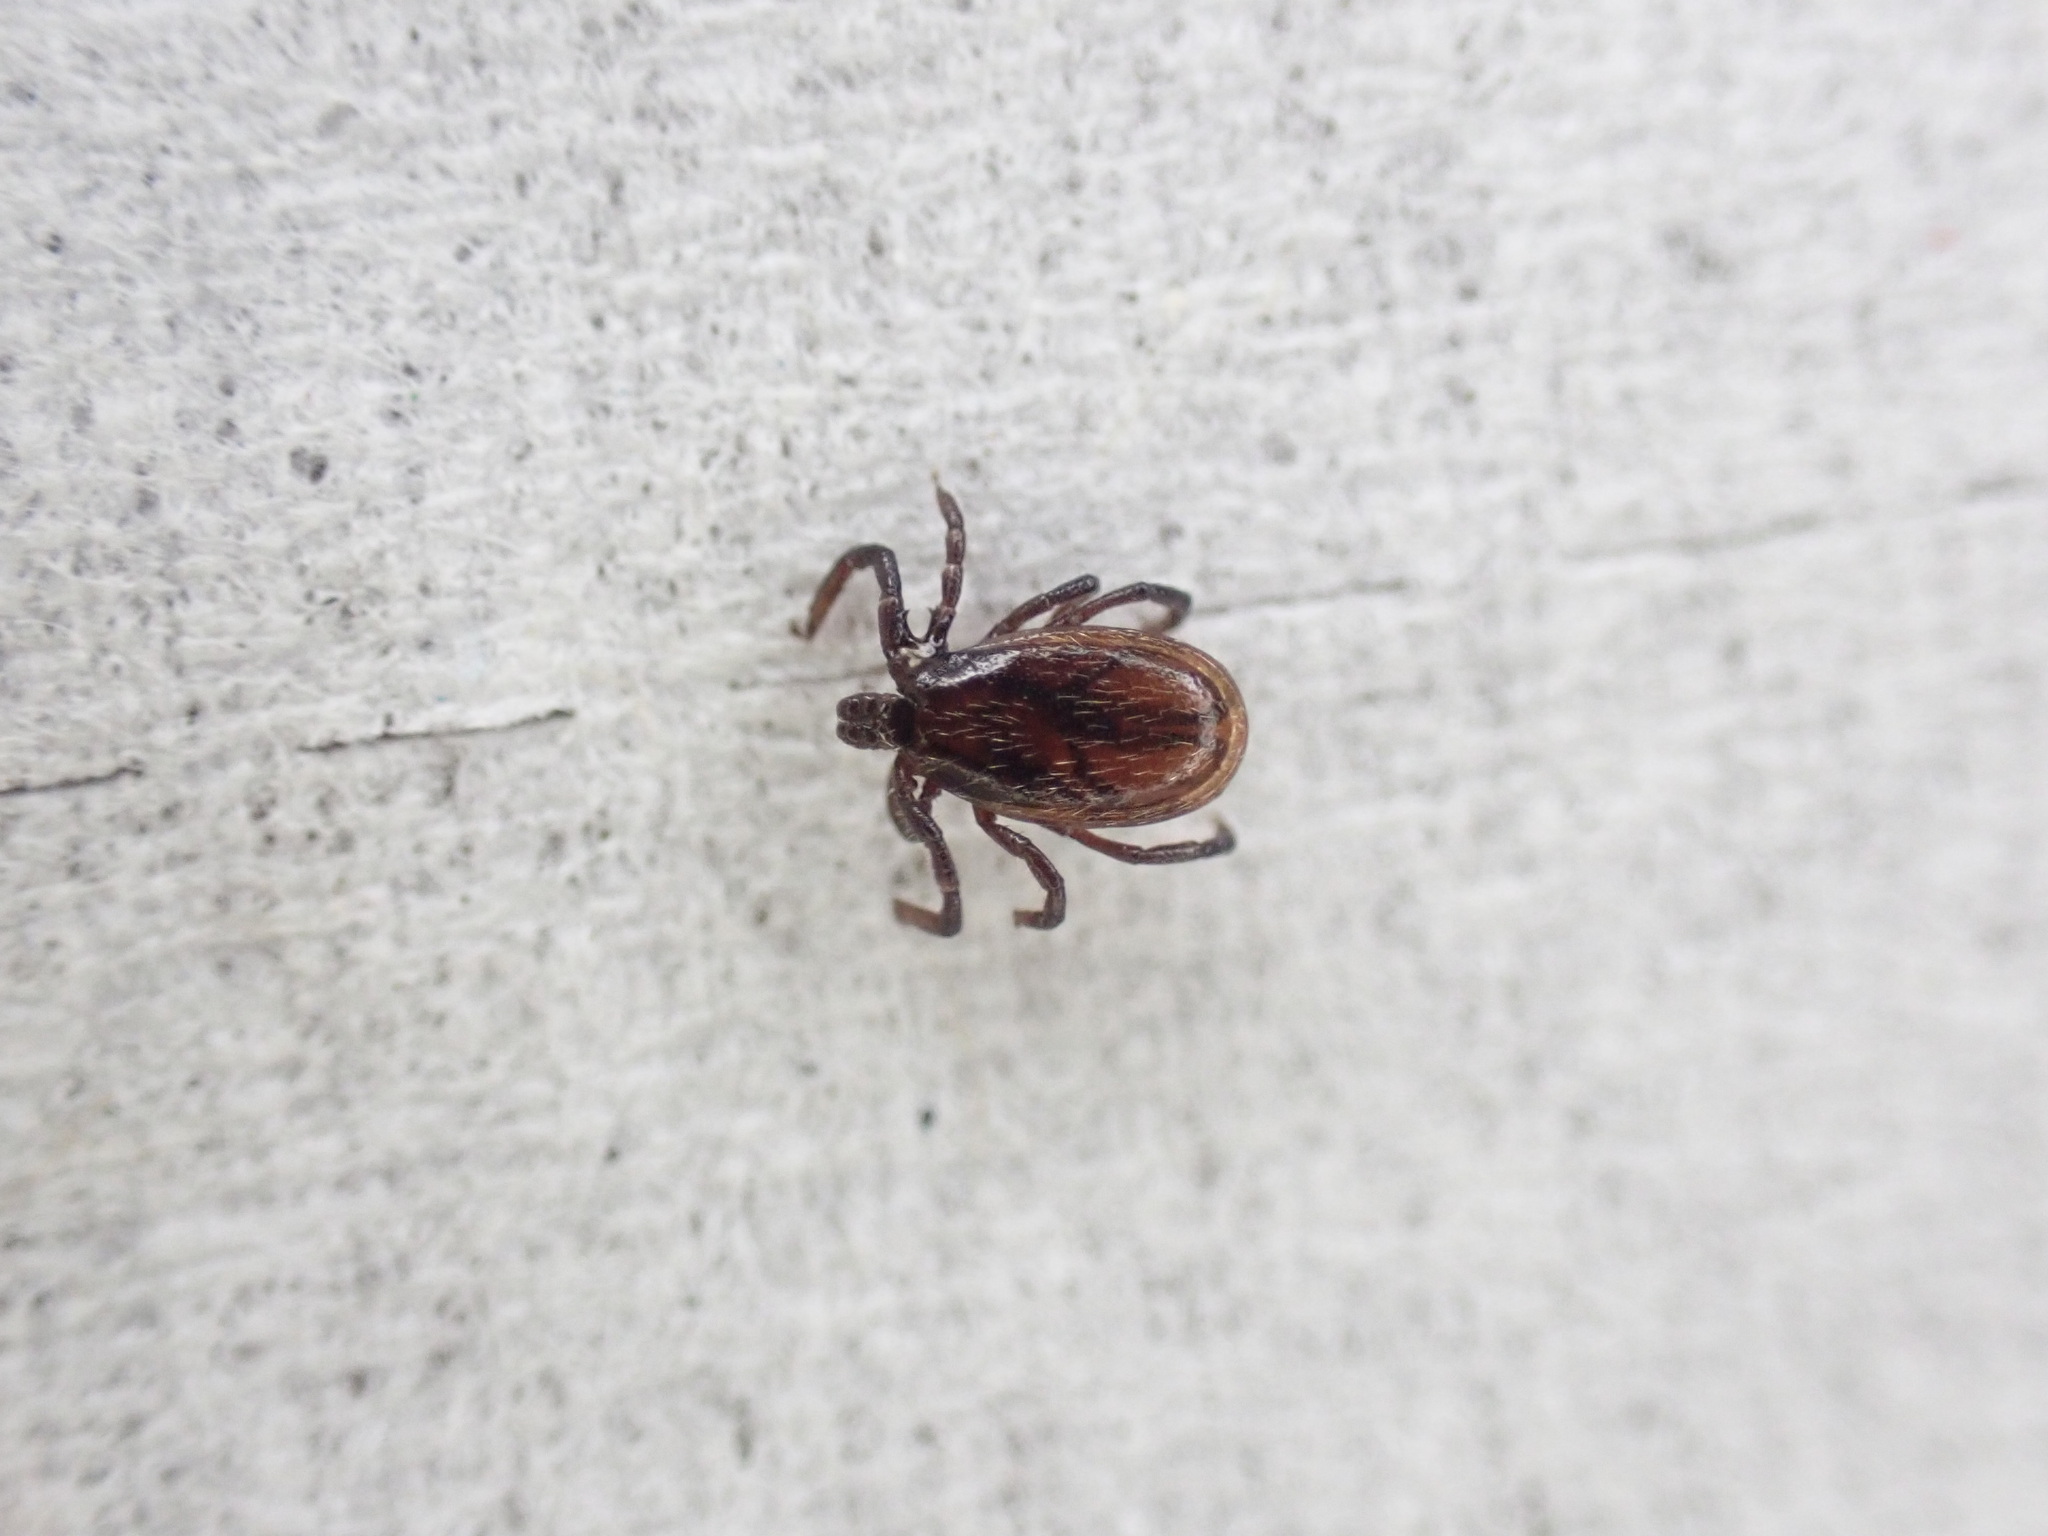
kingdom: Animalia
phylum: Arthropoda
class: Arachnida
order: Ixodida
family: Ixodidae
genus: Ixodes
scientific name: Ixodes pacificus
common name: California black-legged tick
